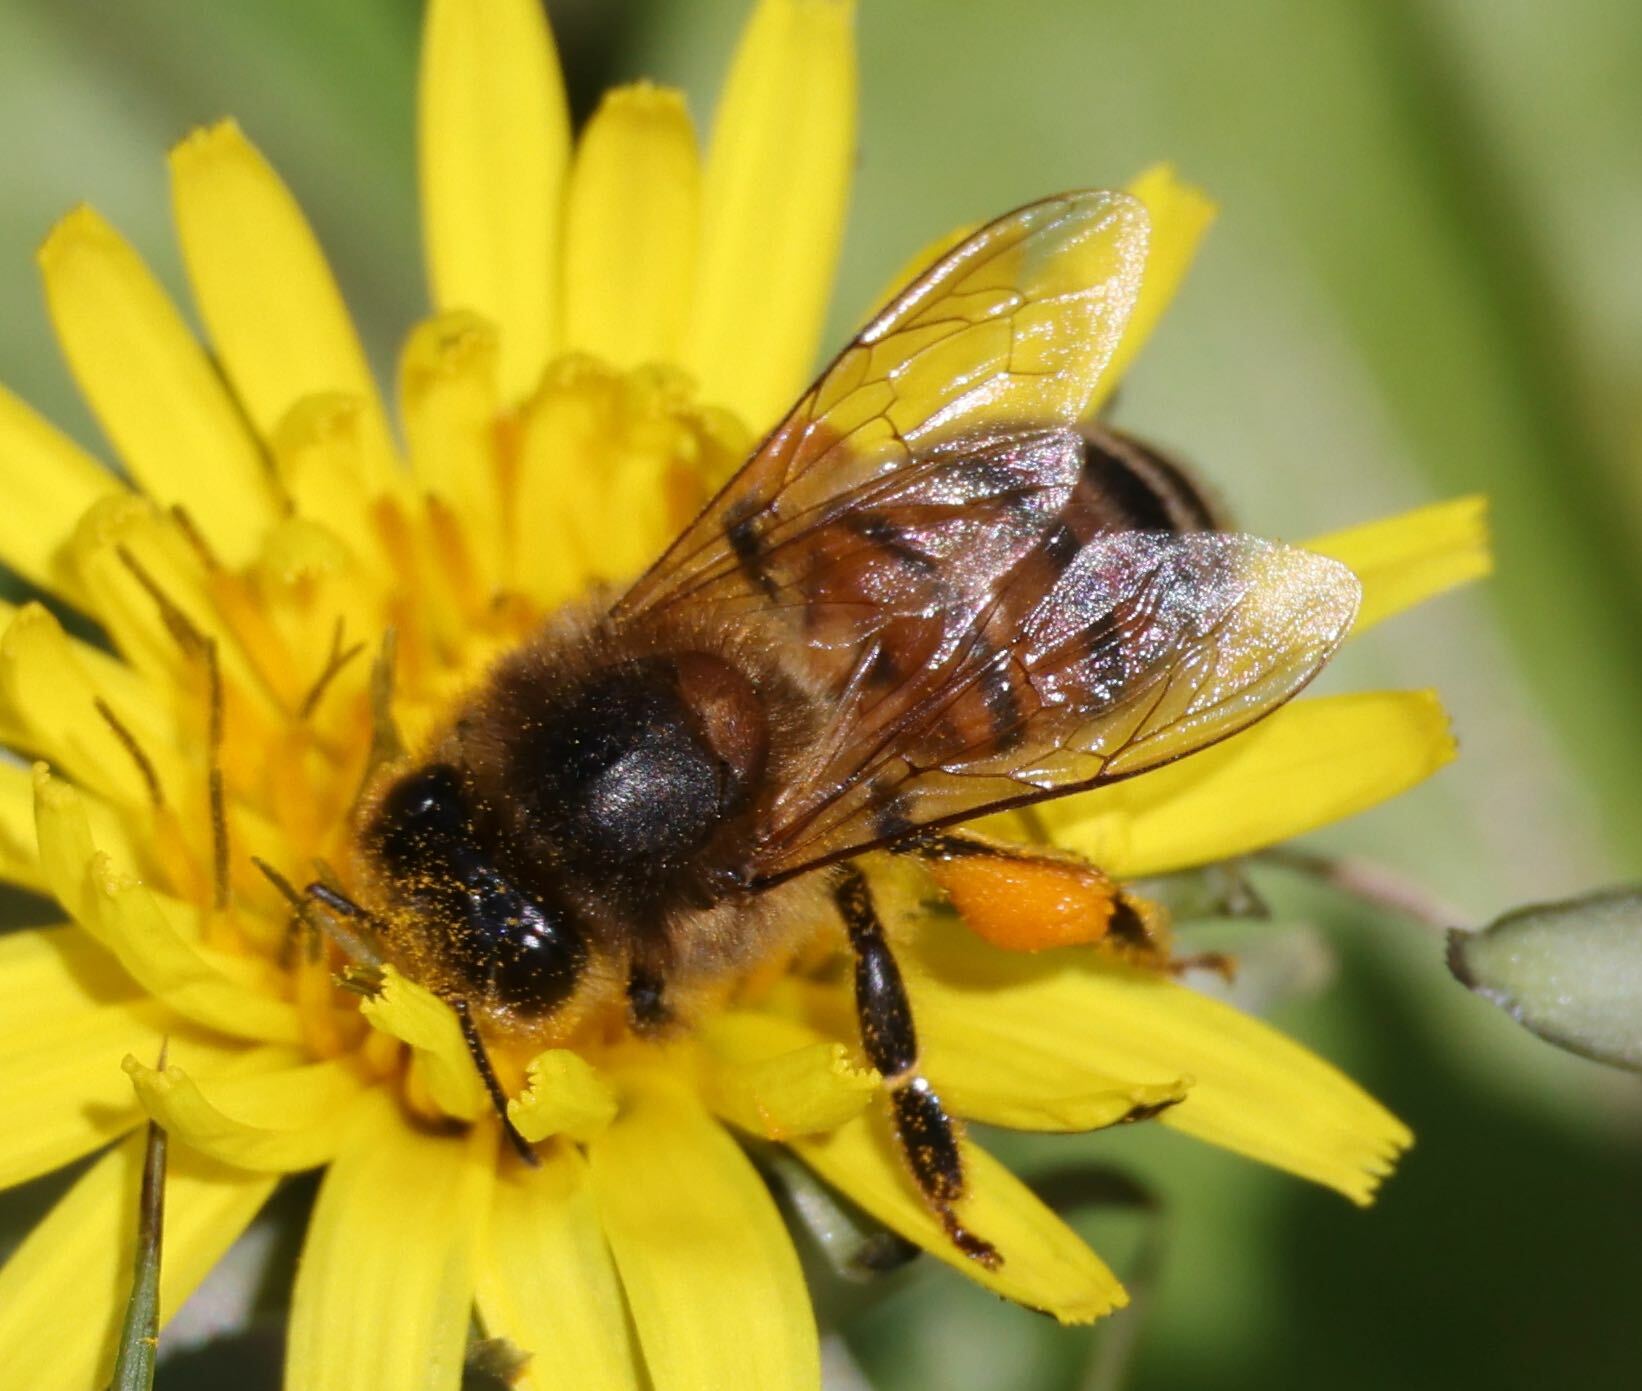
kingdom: Animalia
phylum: Arthropoda
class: Insecta
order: Hymenoptera
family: Apidae
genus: Apis
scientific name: Apis mellifera
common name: Honey bee
